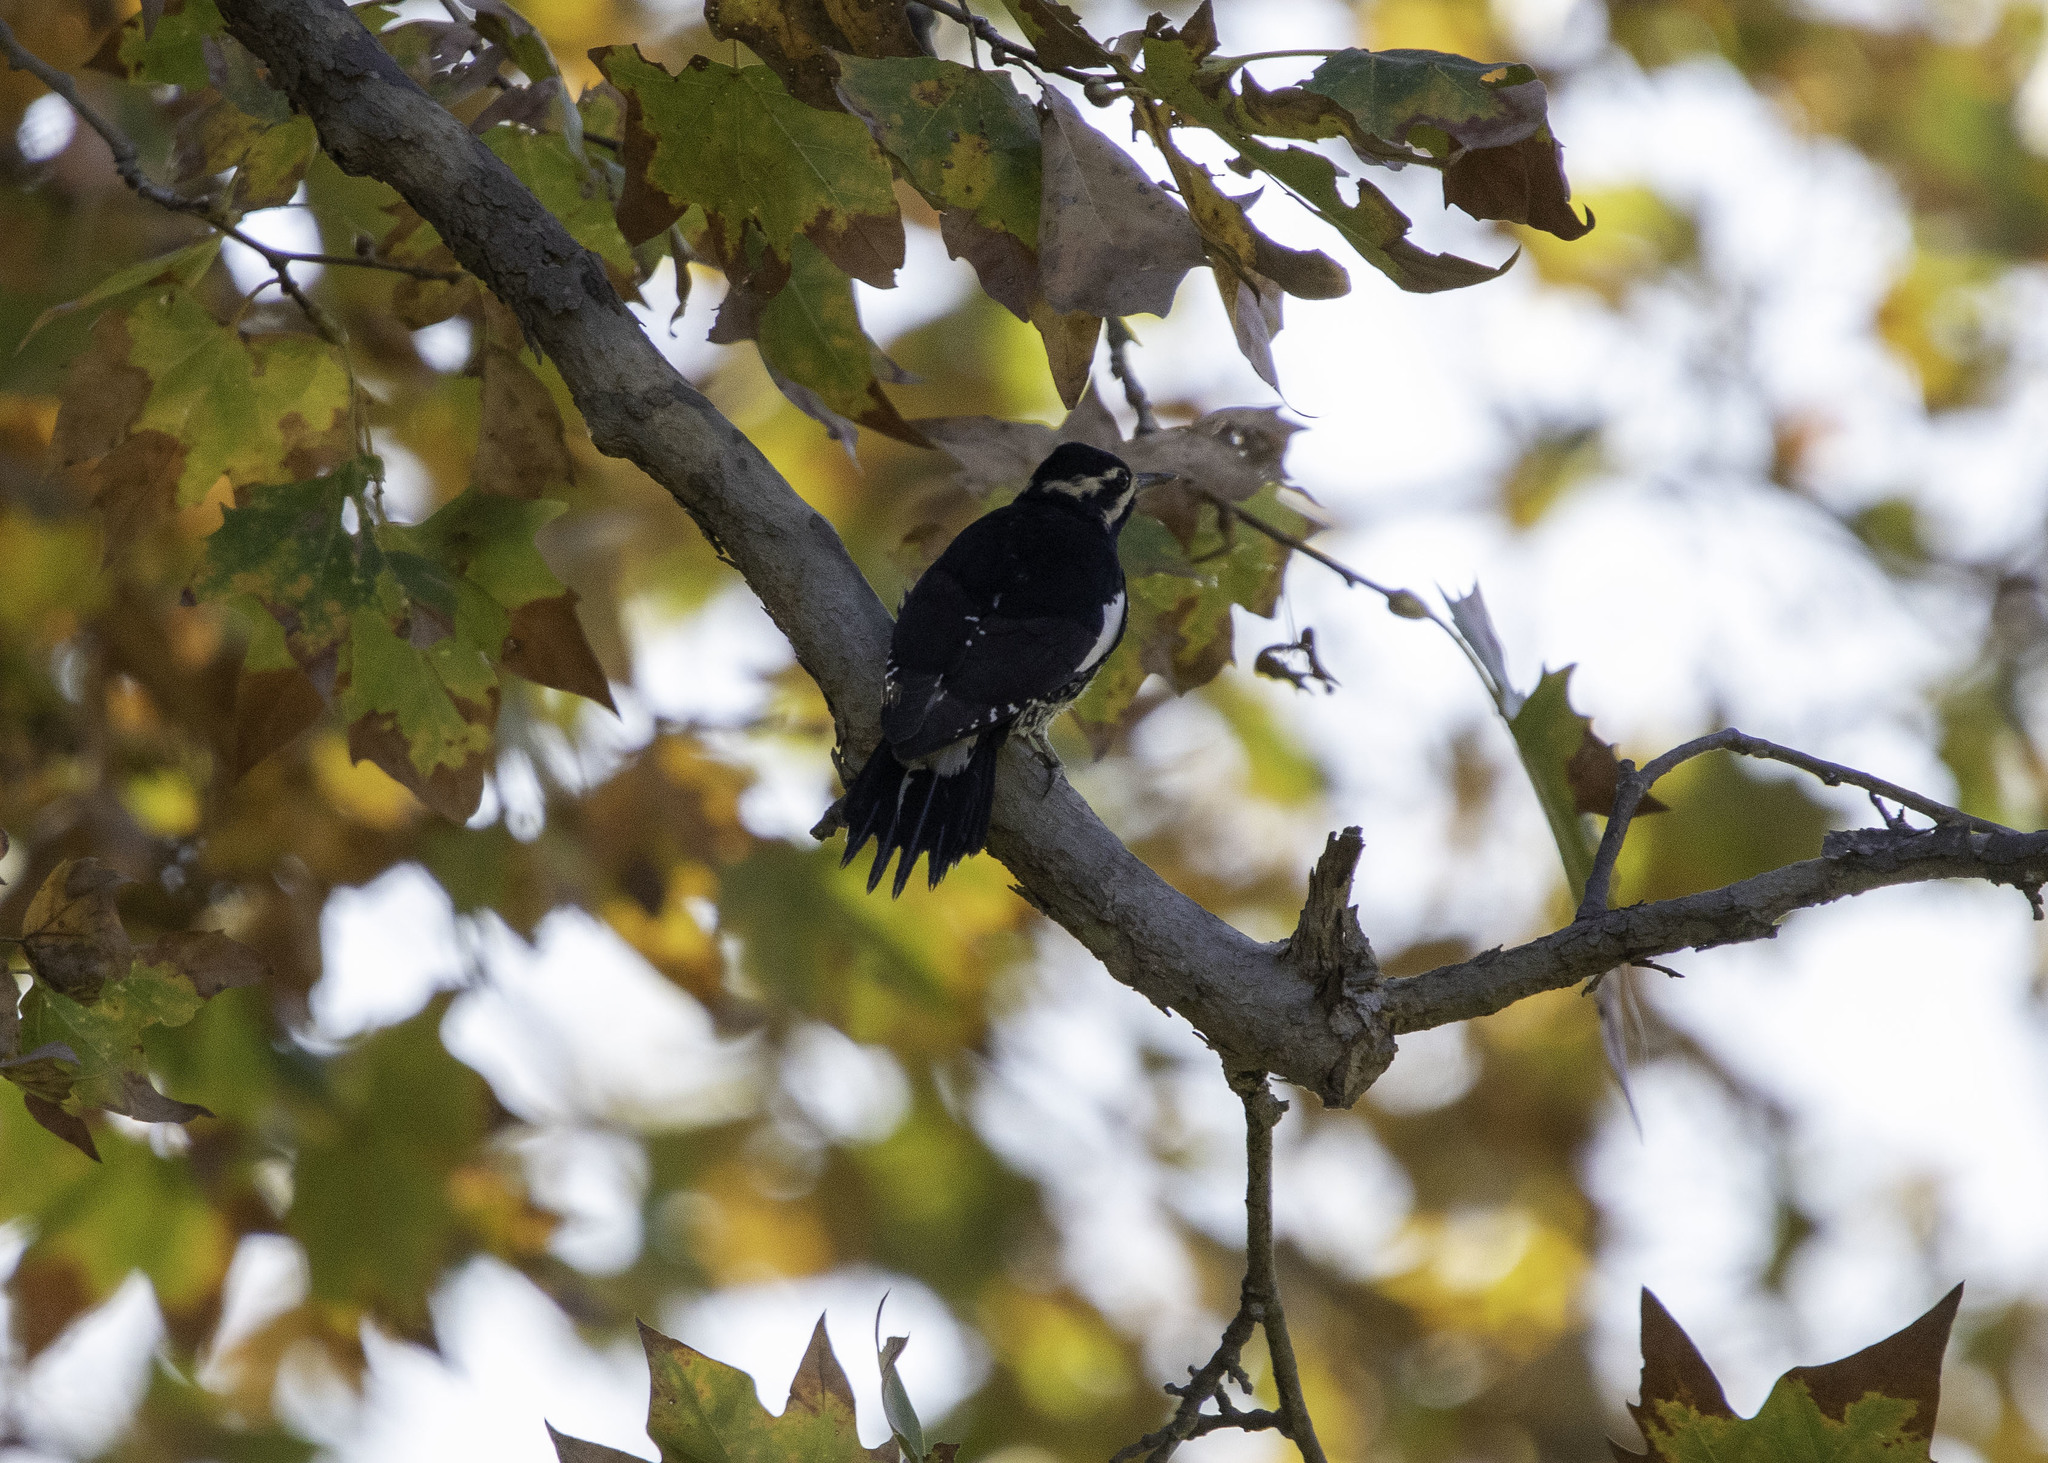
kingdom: Animalia
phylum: Chordata
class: Aves
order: Piciformes
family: Picidae
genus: Sphyrapicus
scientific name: Sphyrapicus thyroideus
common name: Williamson's sapsucker
